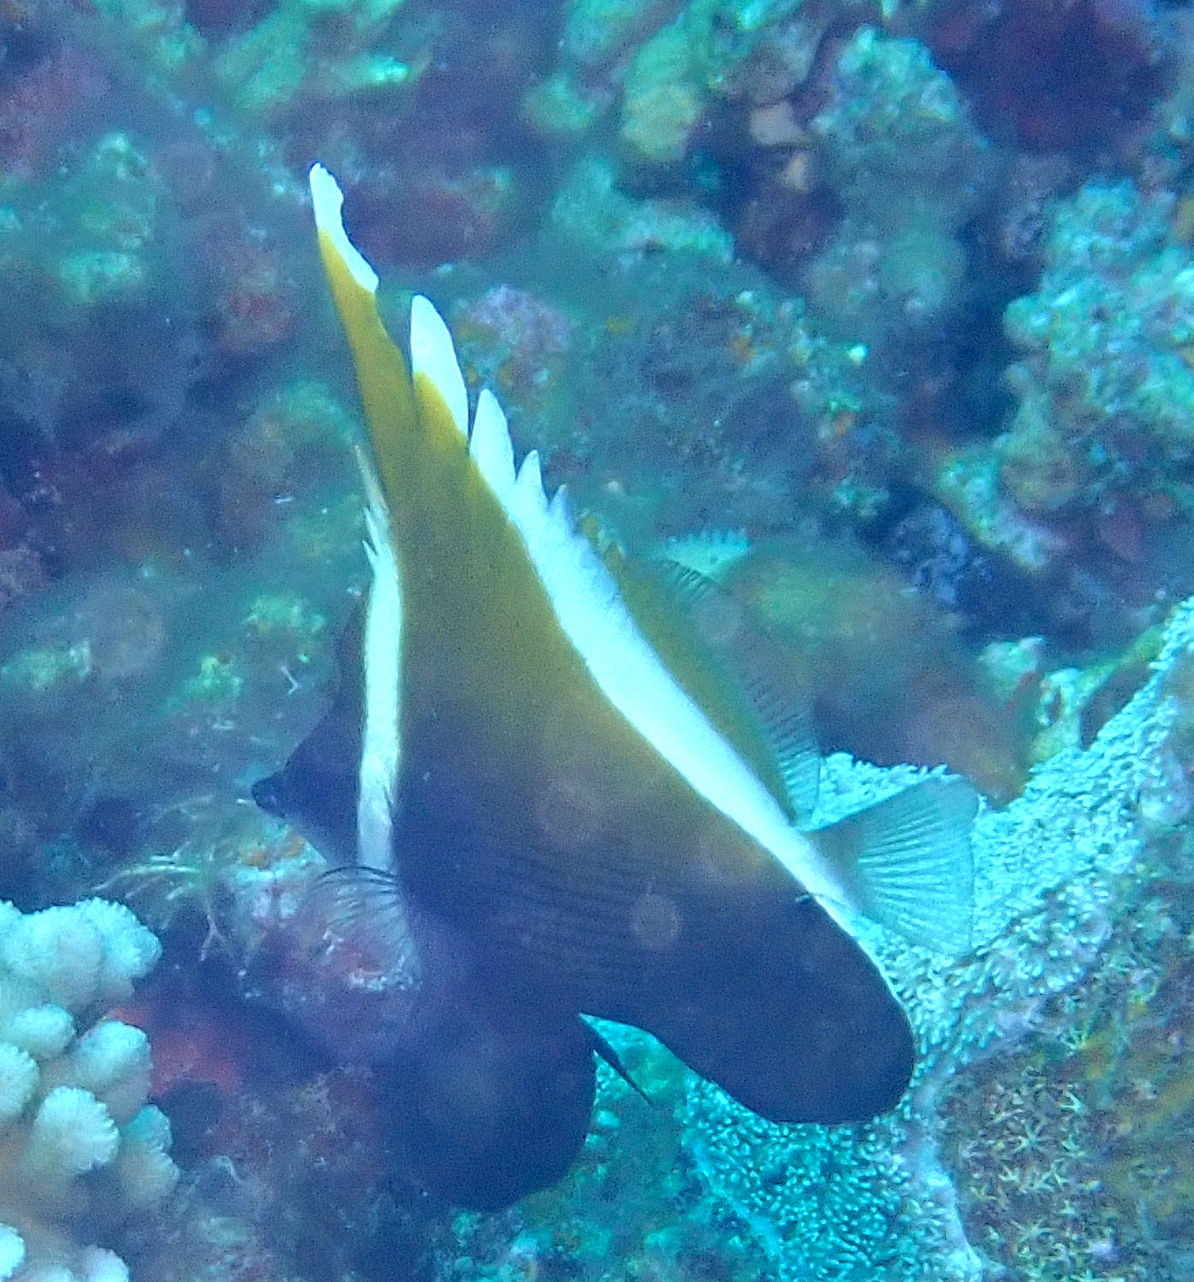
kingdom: Animalia
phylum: Chordata
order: Perciformes
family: Chaetodontidae
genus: Heniochus
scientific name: Heniochus varius
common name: Horned bannerfish
